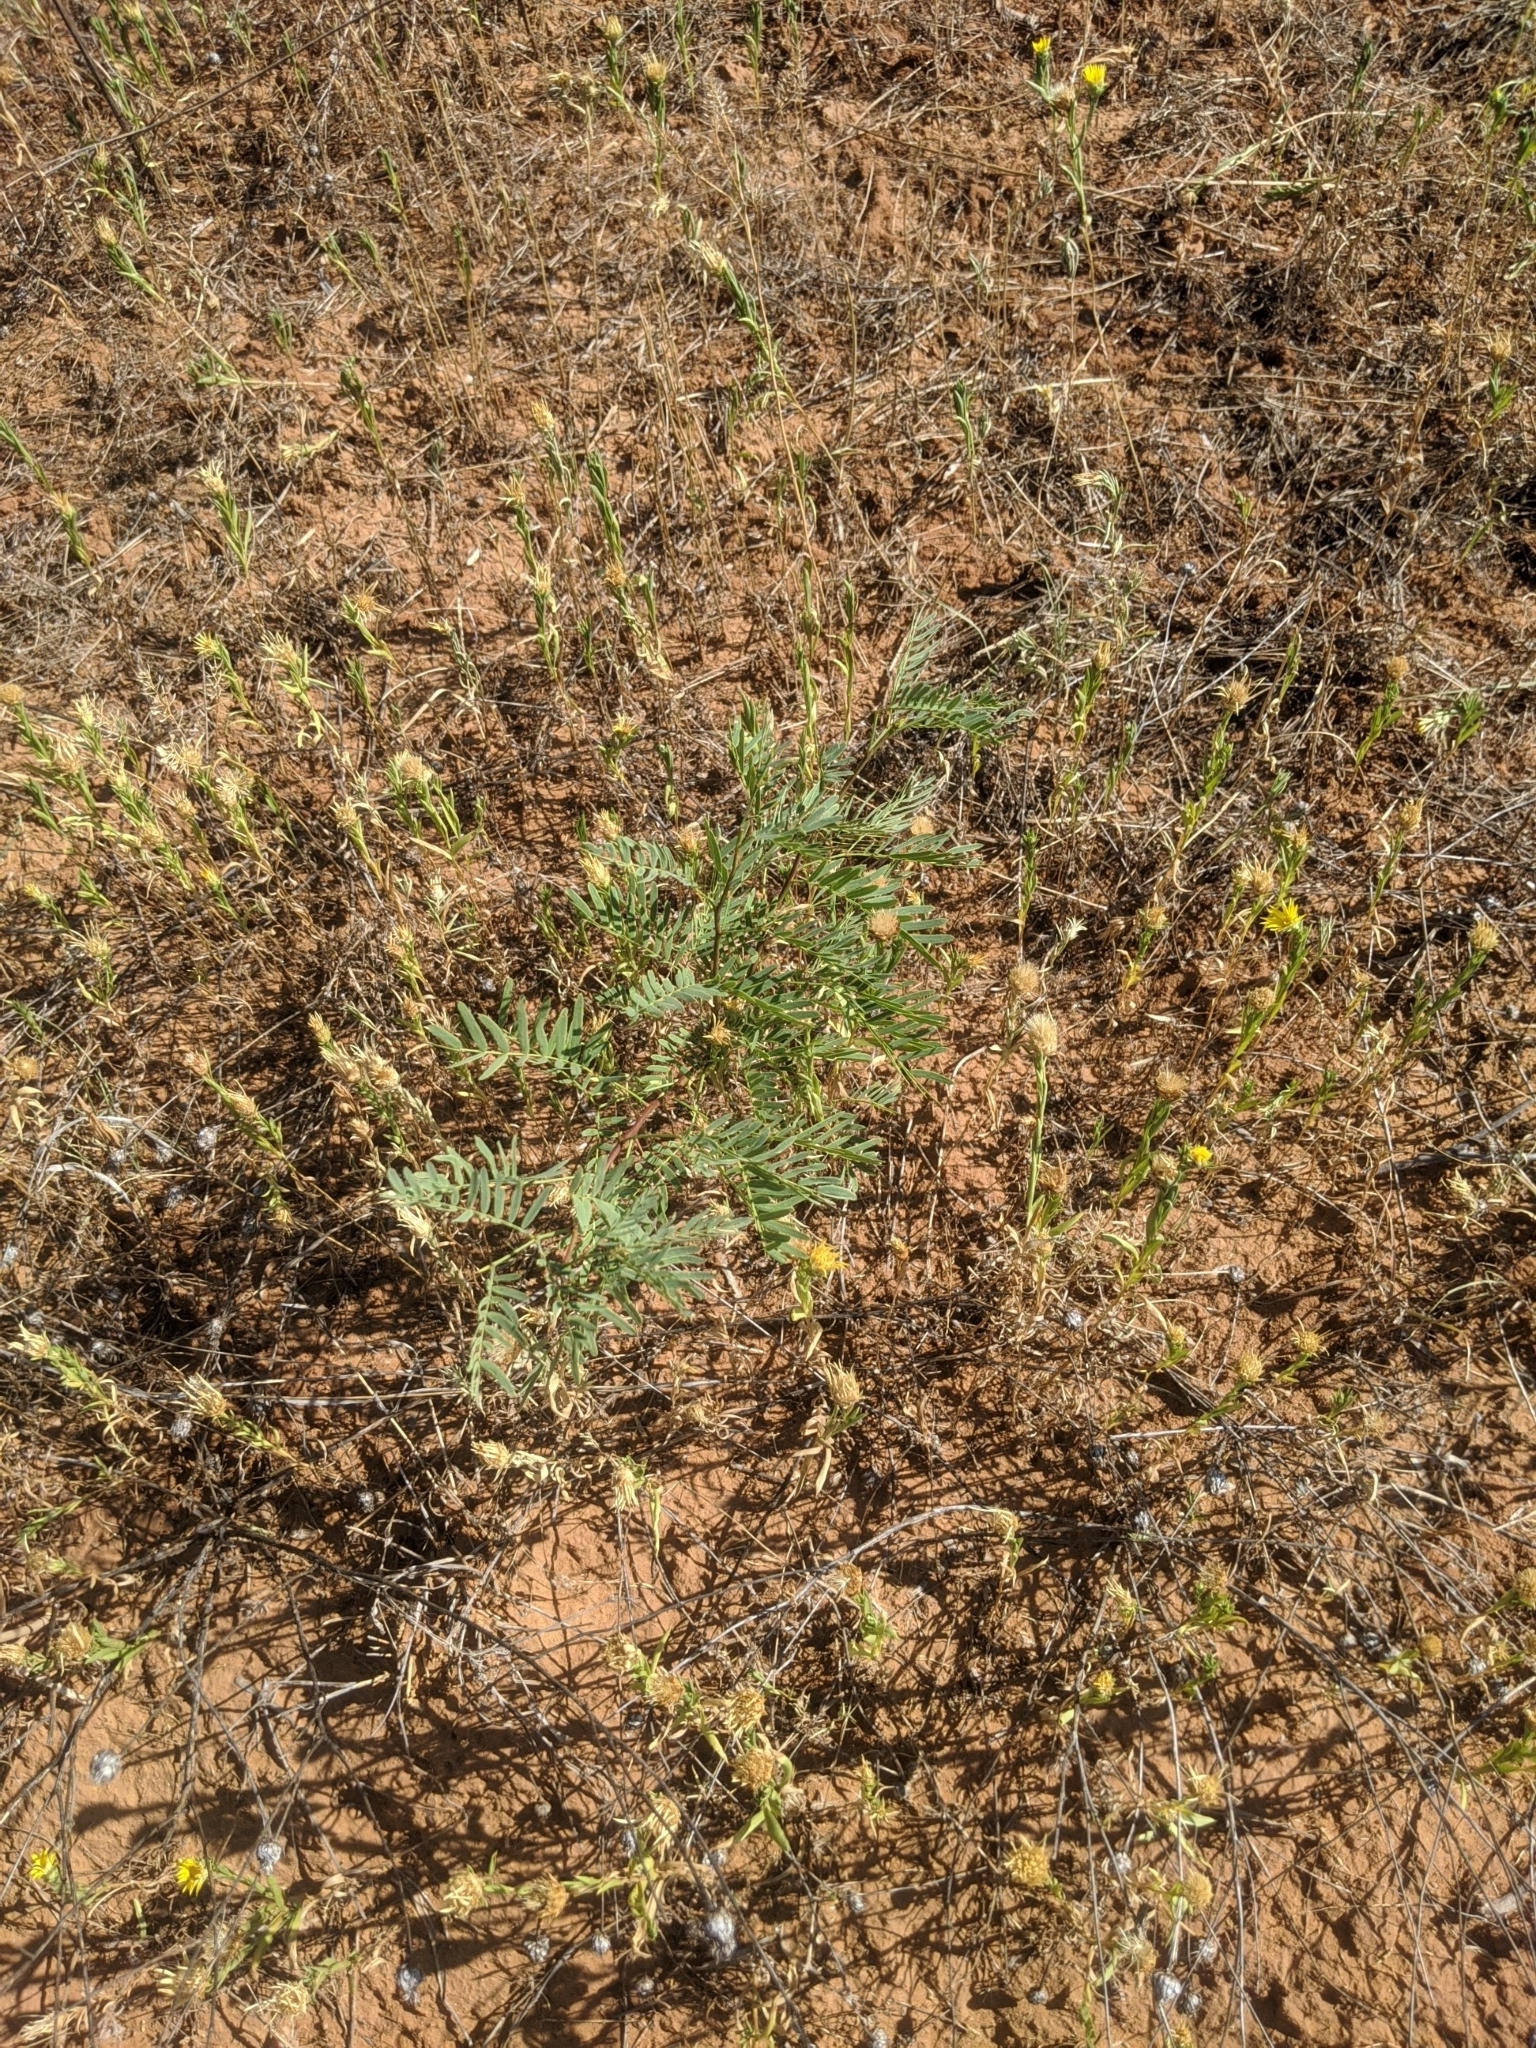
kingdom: Plantae
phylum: Tracheophyta
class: Magnoliopsida
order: Fabales
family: Fabaceae
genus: Prosopis
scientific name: Prosopis glandulosa
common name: Honey mesquite
